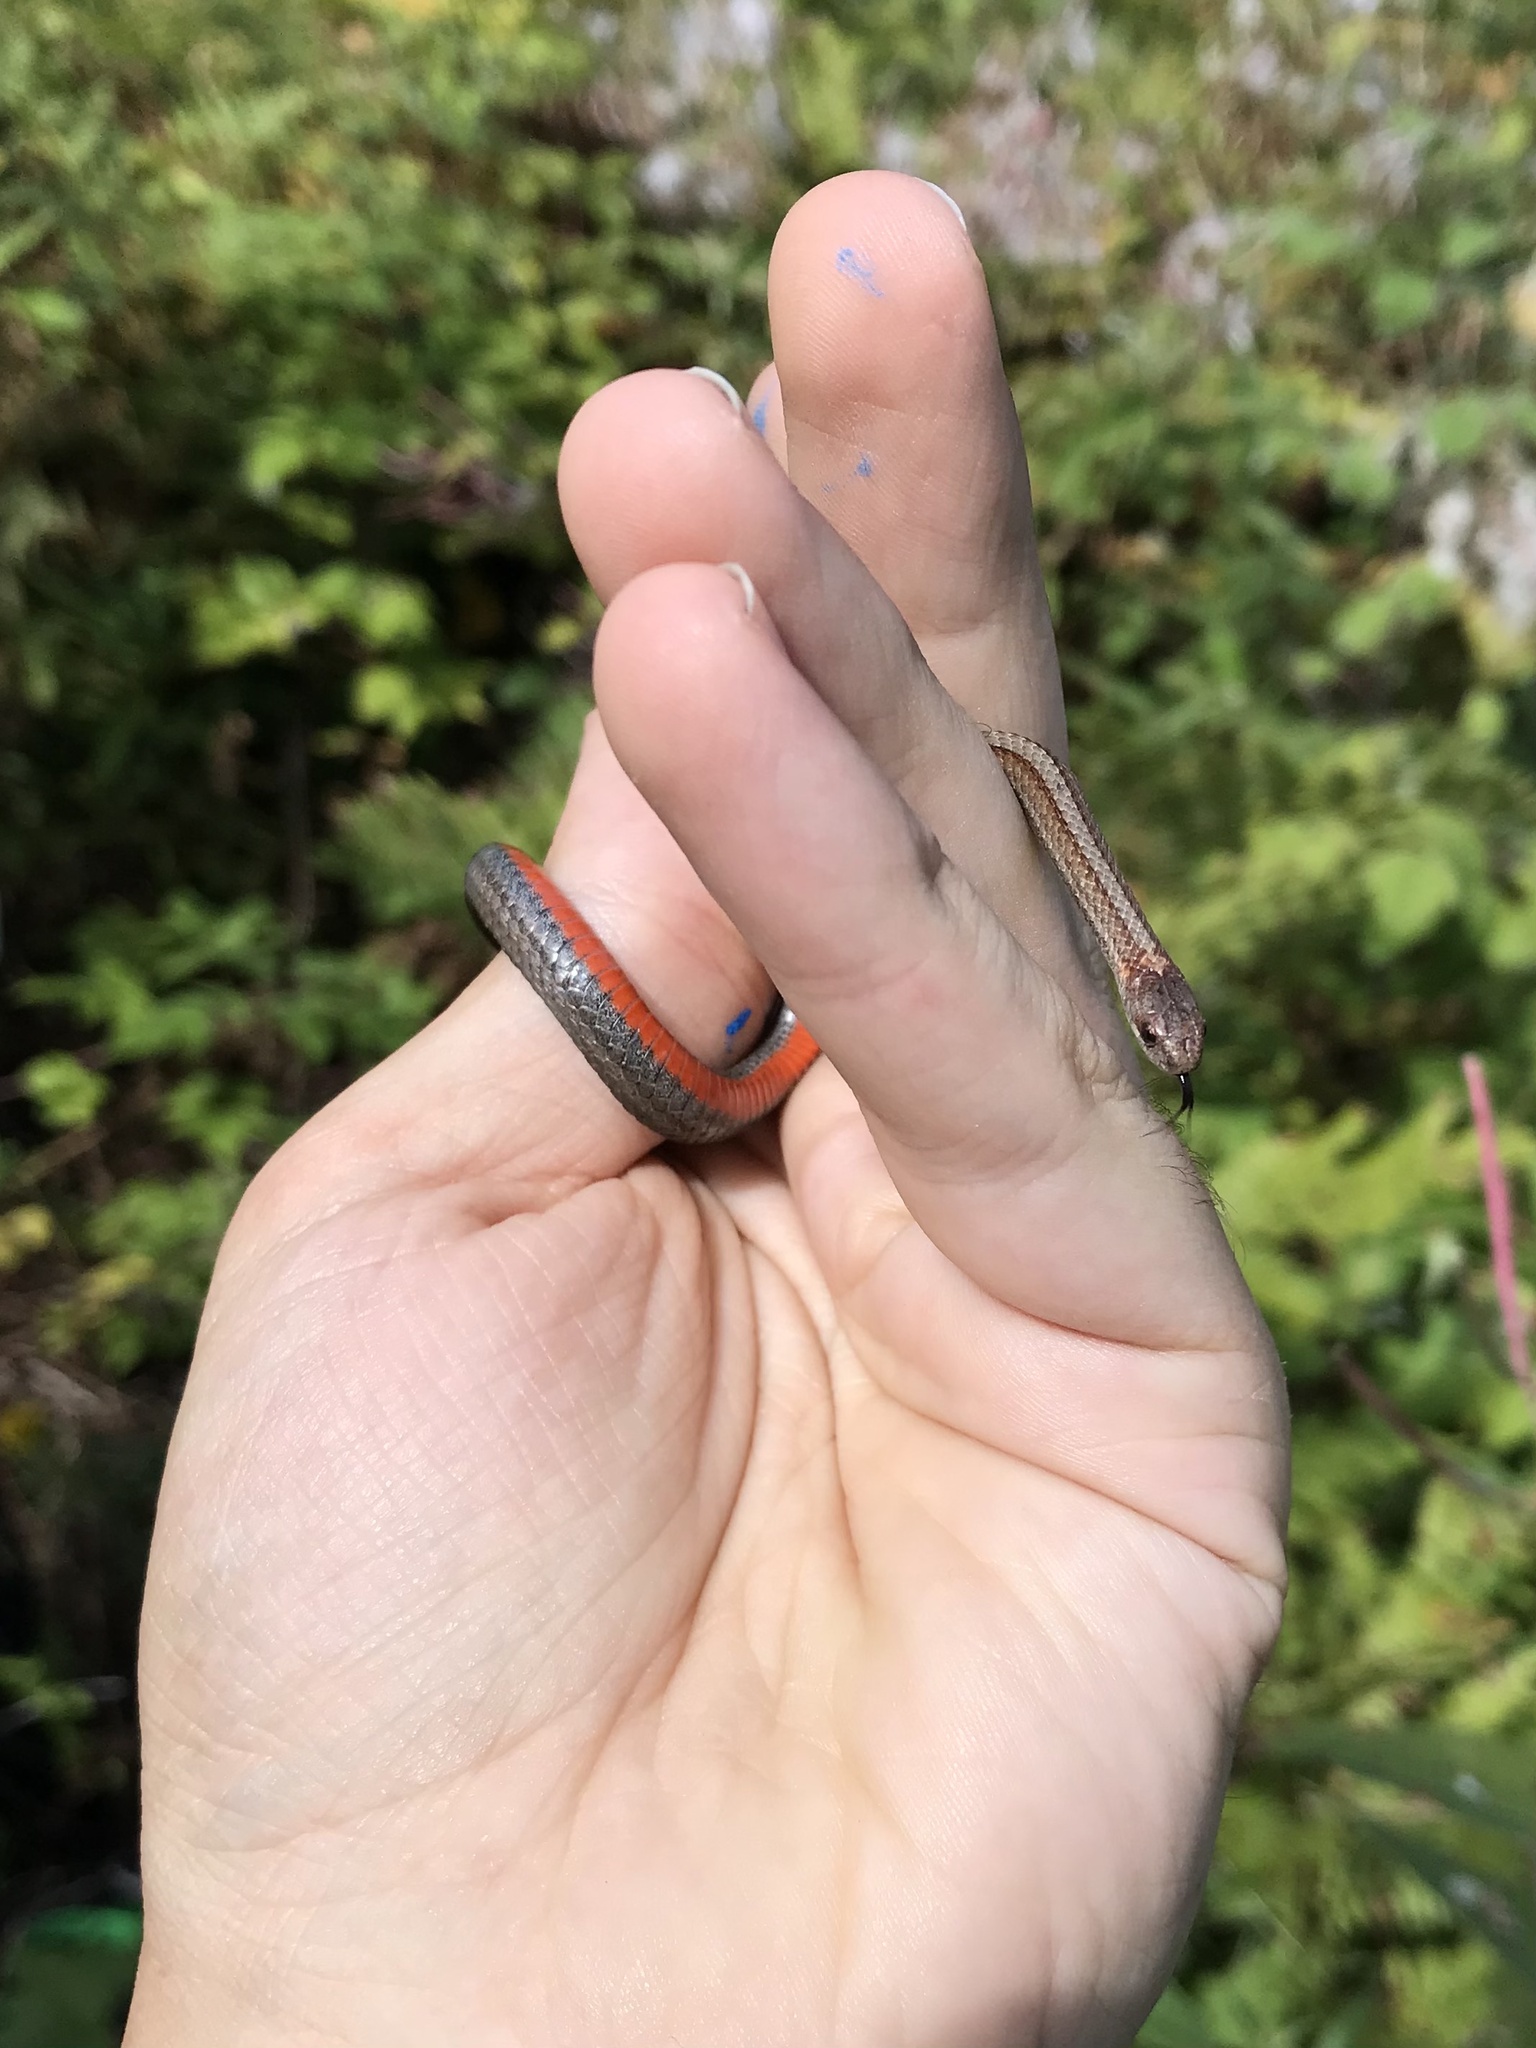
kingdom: Animalia
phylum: Chordata
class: Squamata
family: Colubridae
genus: Storeria
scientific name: Storeria occipitomaculata
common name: Redbelly snake
